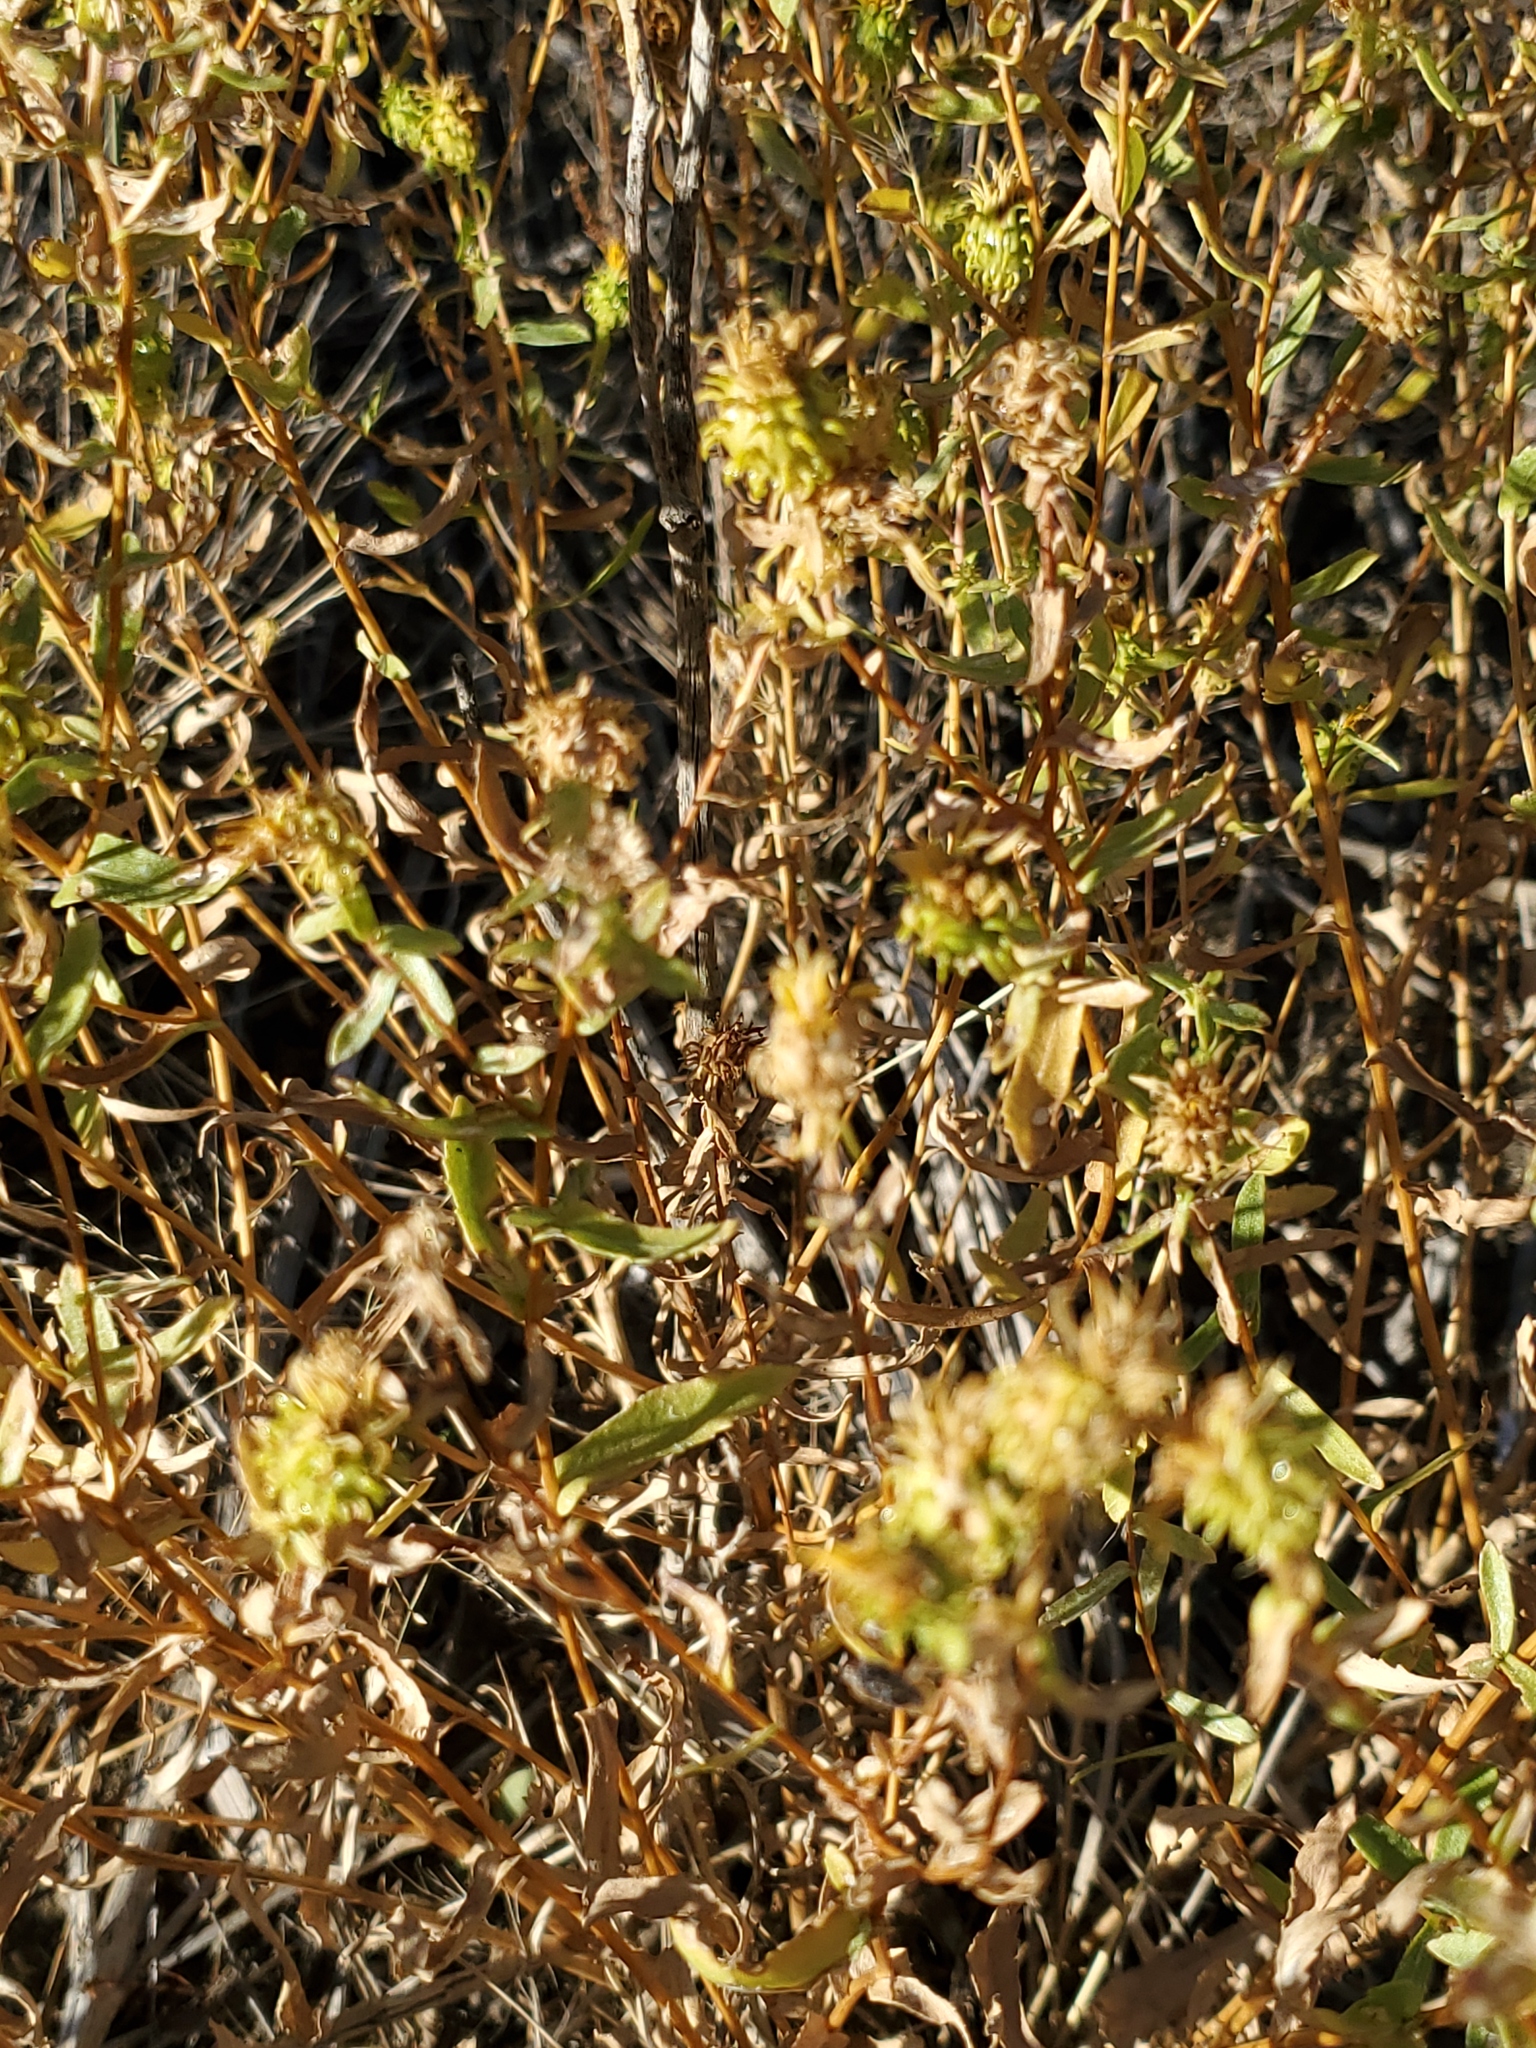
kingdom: Plantae
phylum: Tracheophyta
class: Magnoliopsida
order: Asterales
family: Asteraceae
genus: Grindelia
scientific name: Grindelia squarrosa
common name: Curly-cup gumweed
